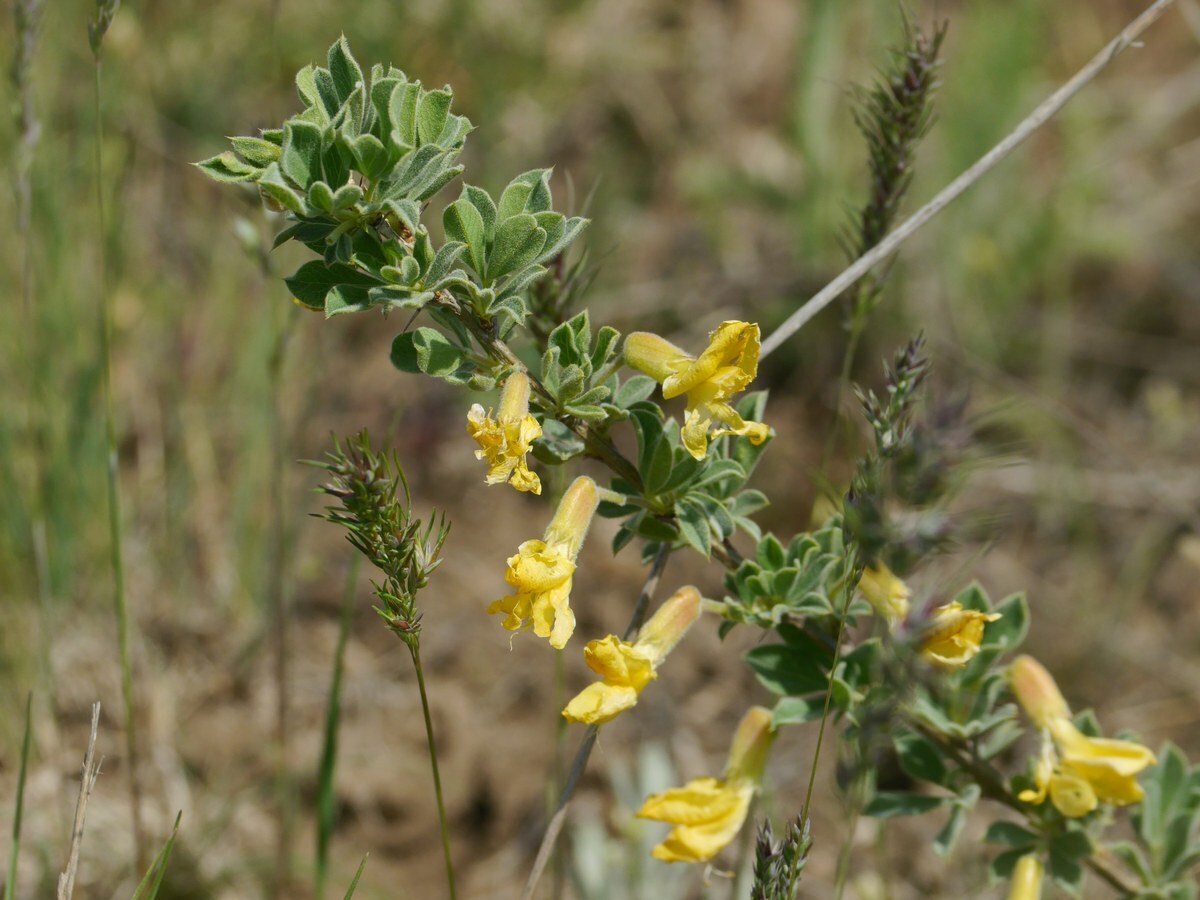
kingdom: Plantae
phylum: Tracheophyta
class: Magnoliopsida
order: Fabales
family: Fabaceae
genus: Caragana
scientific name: Caragana frutex
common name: Russian peashrub
